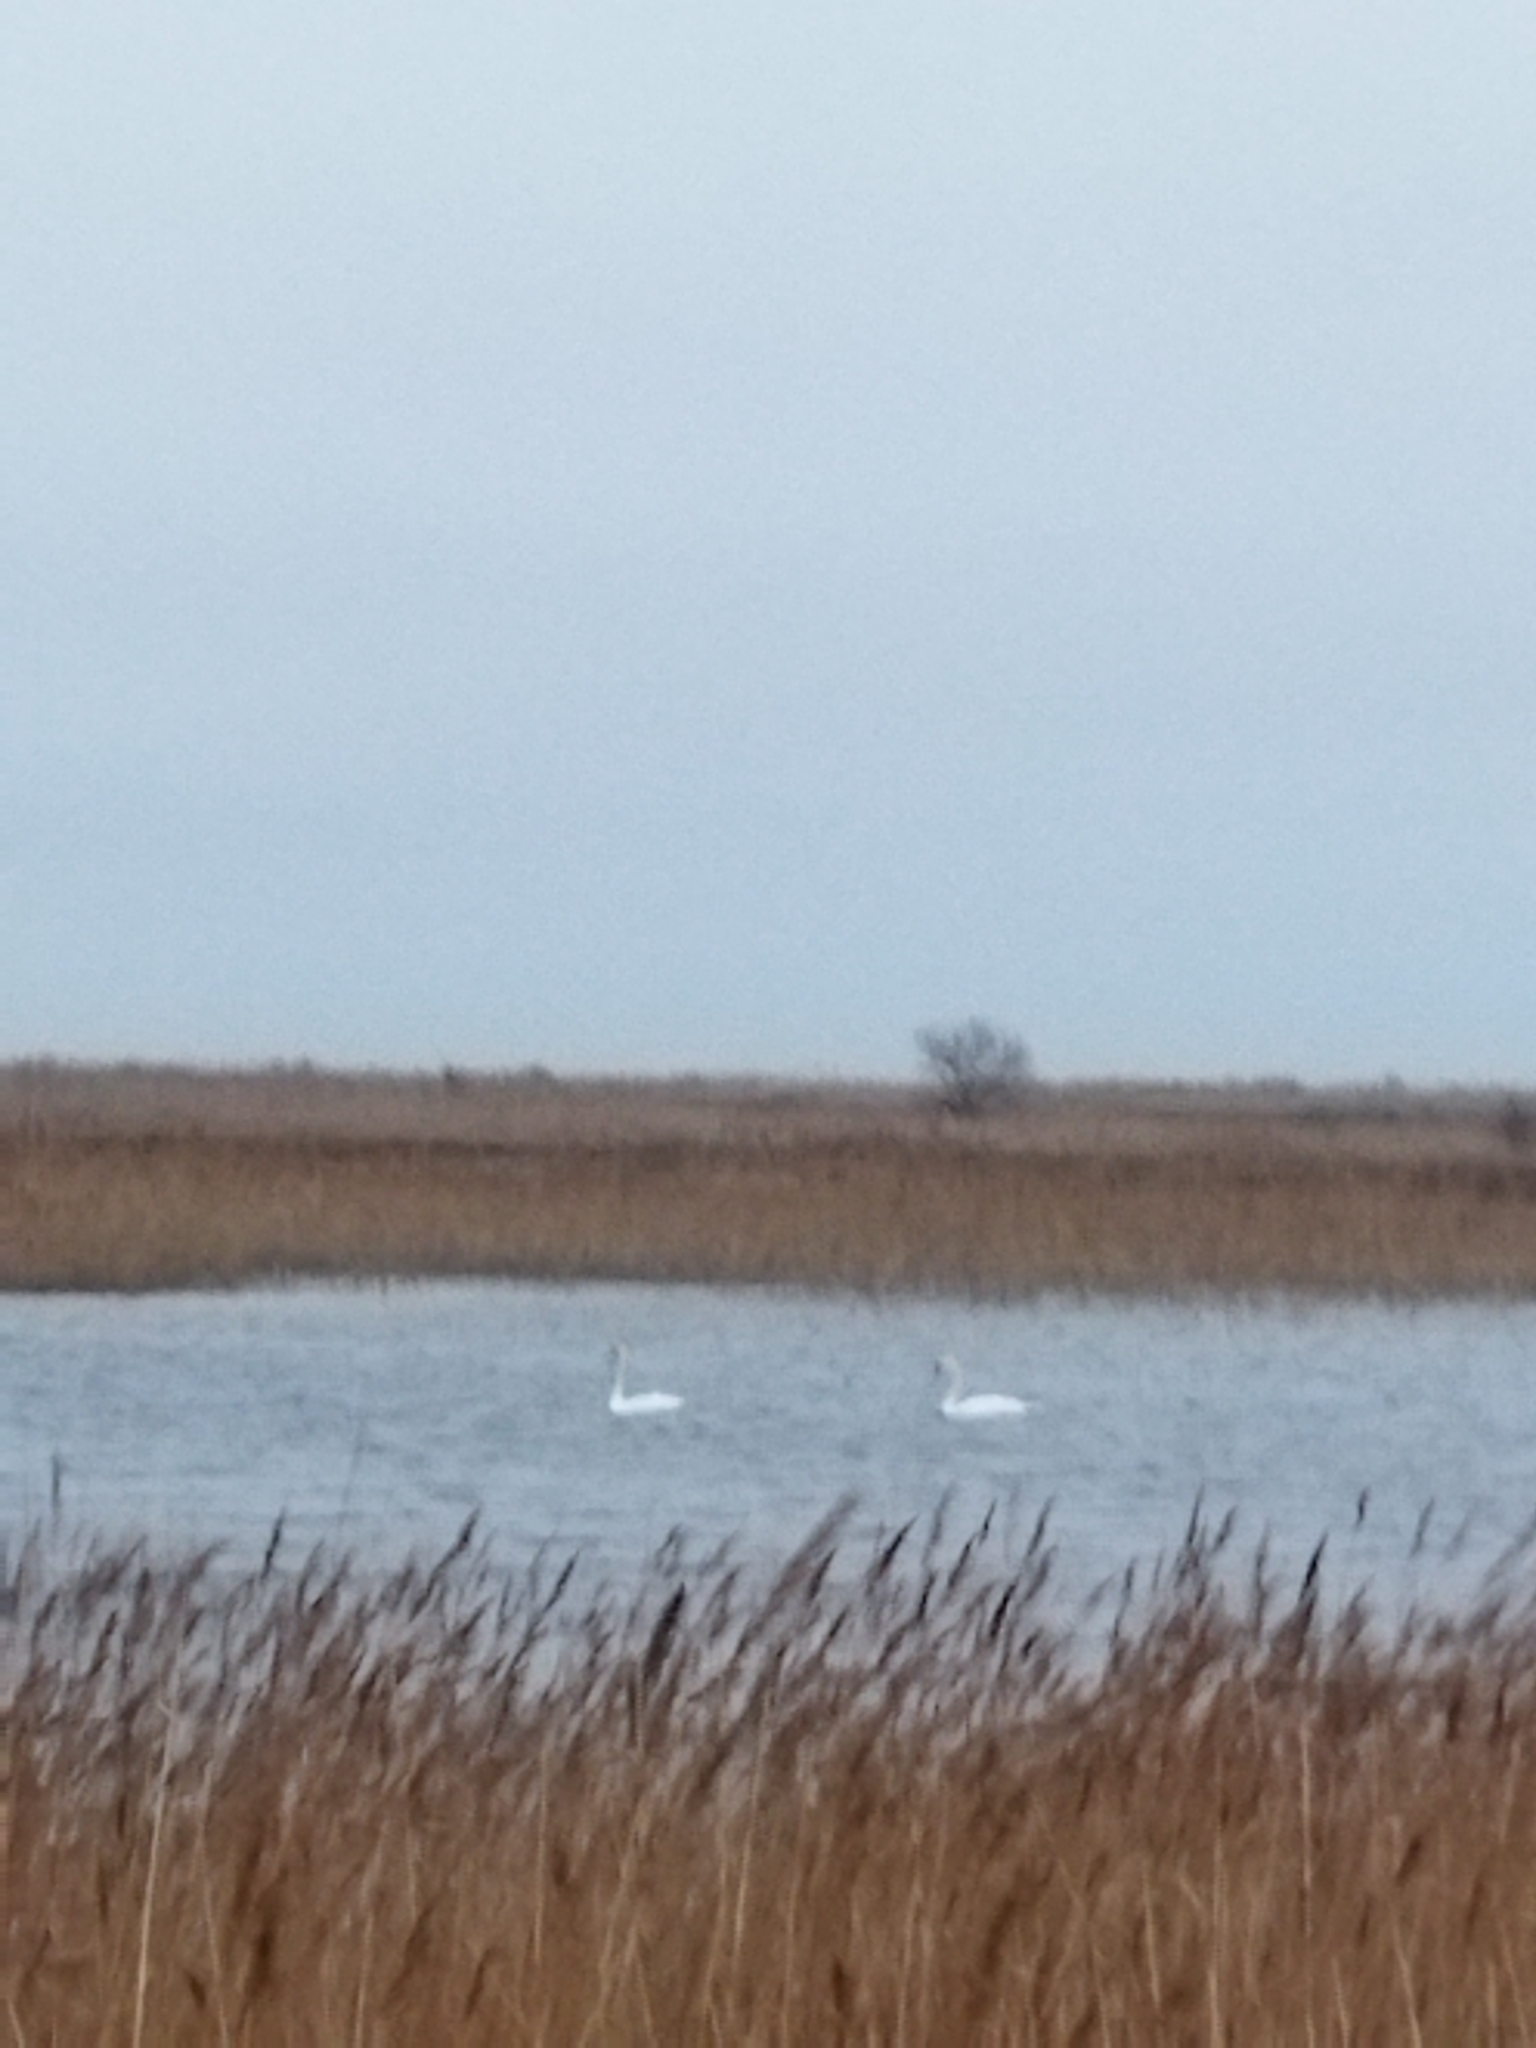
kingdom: Animalia
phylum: Chordata
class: Aves
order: Anseriformes
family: Anatidae
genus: Cygnus
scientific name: Cygnus olor
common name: Mute swan
